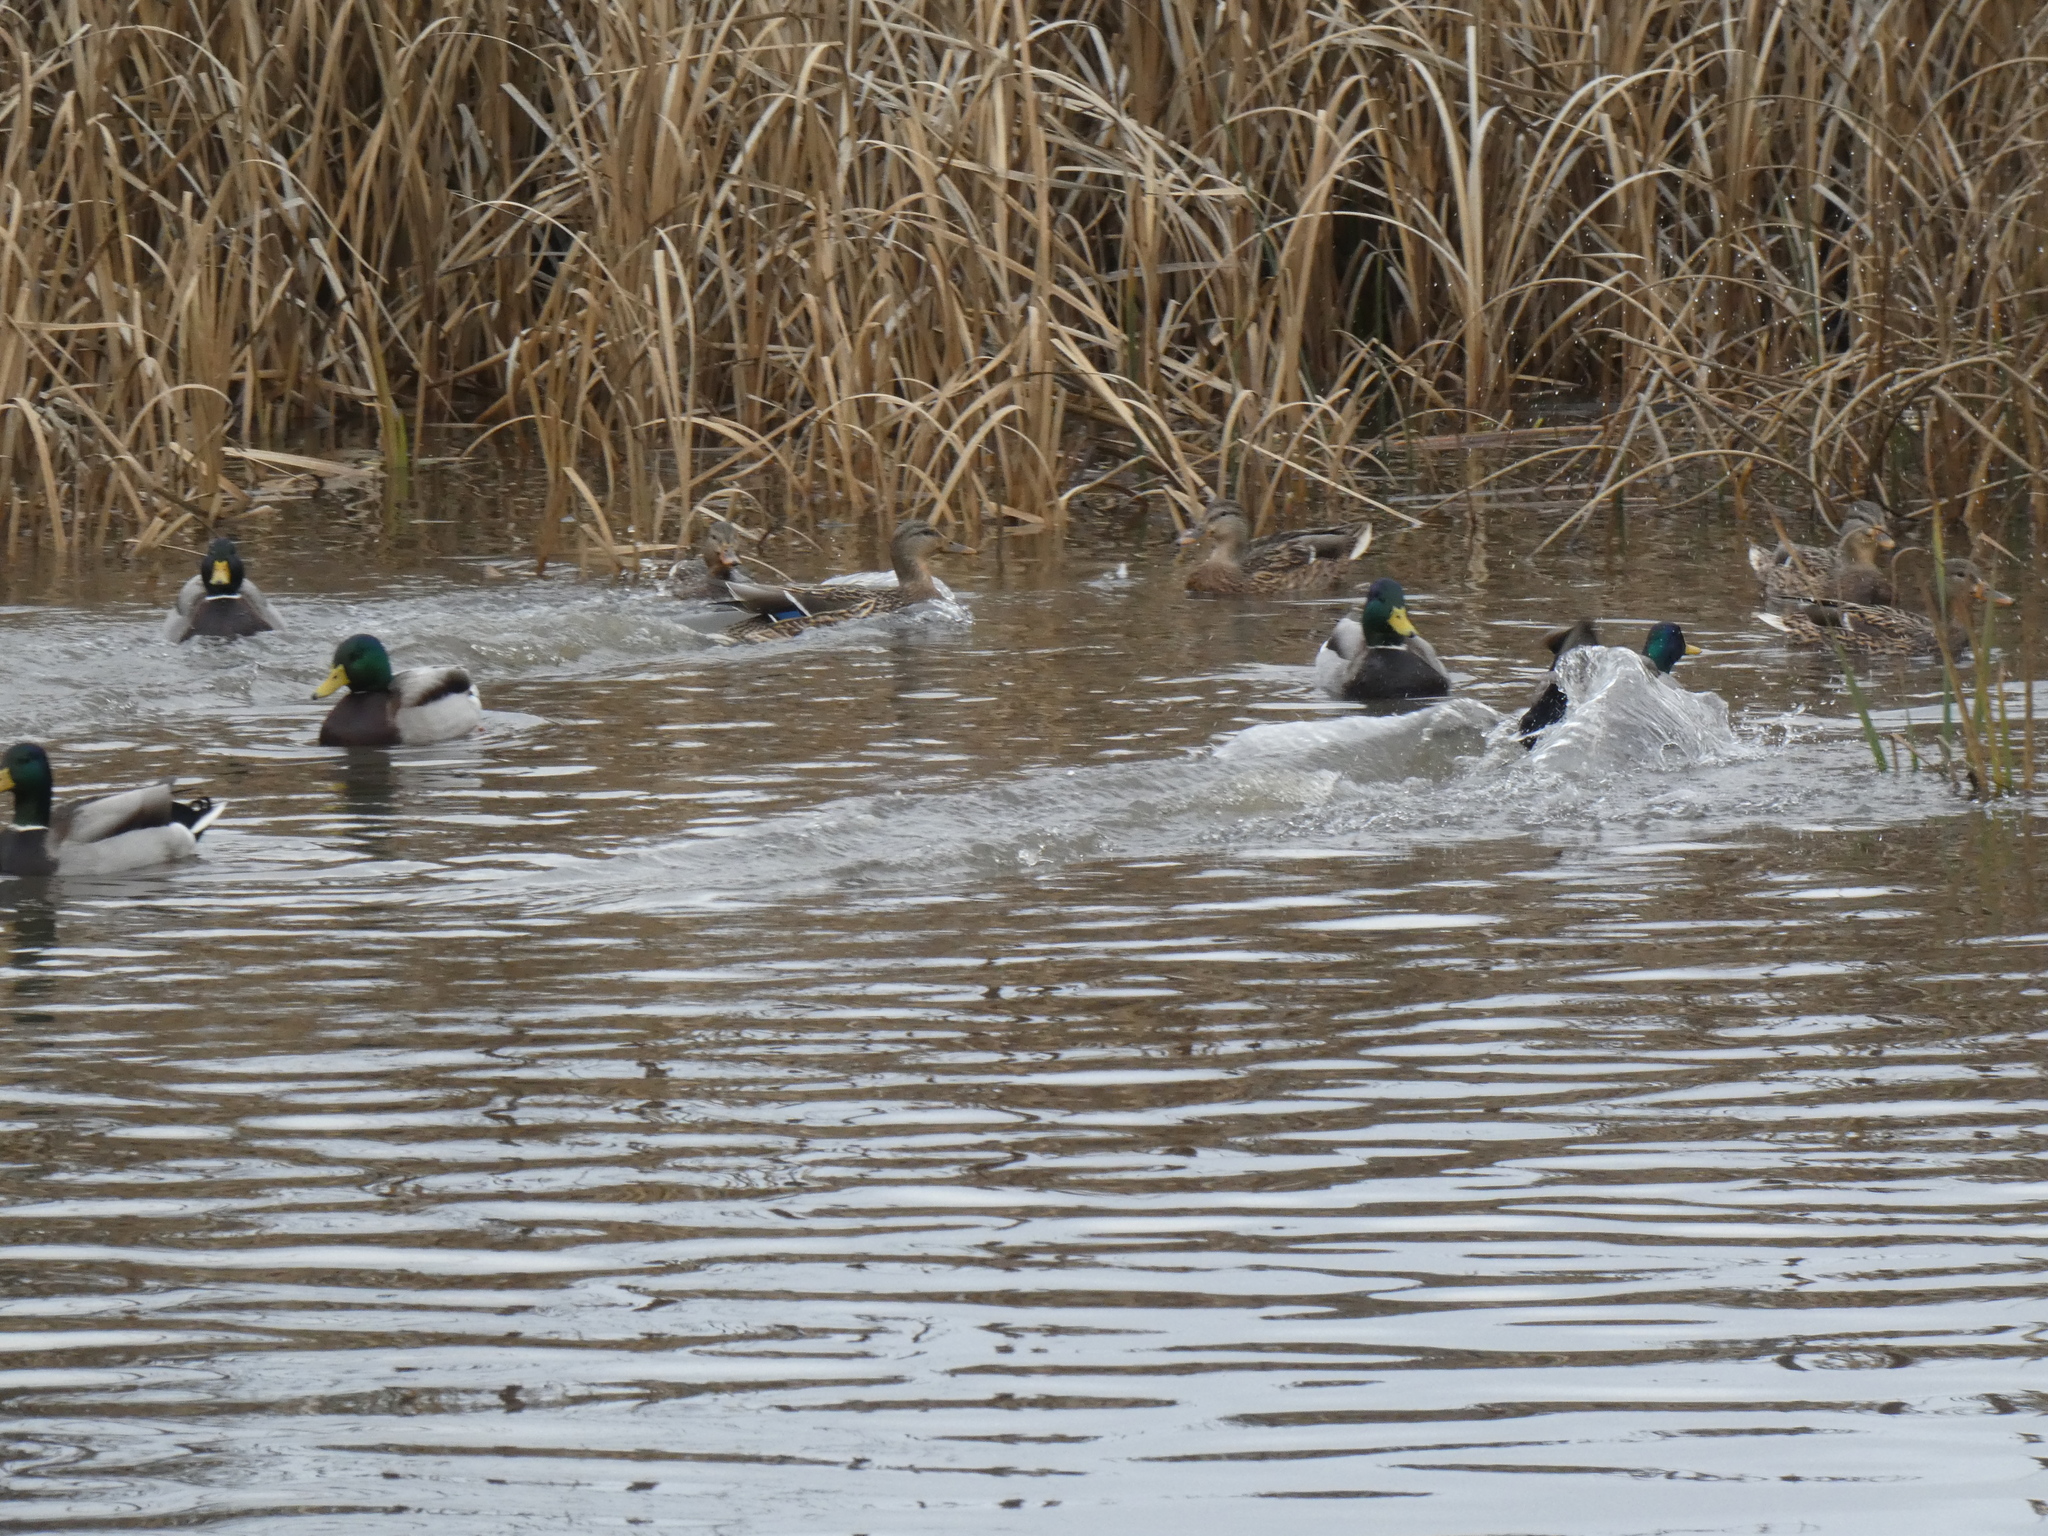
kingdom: Animalia
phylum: Chordata
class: Aves
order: Anseriformes
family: Anatidae
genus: Anas
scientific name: Anas platyrhynchos
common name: Mallard
